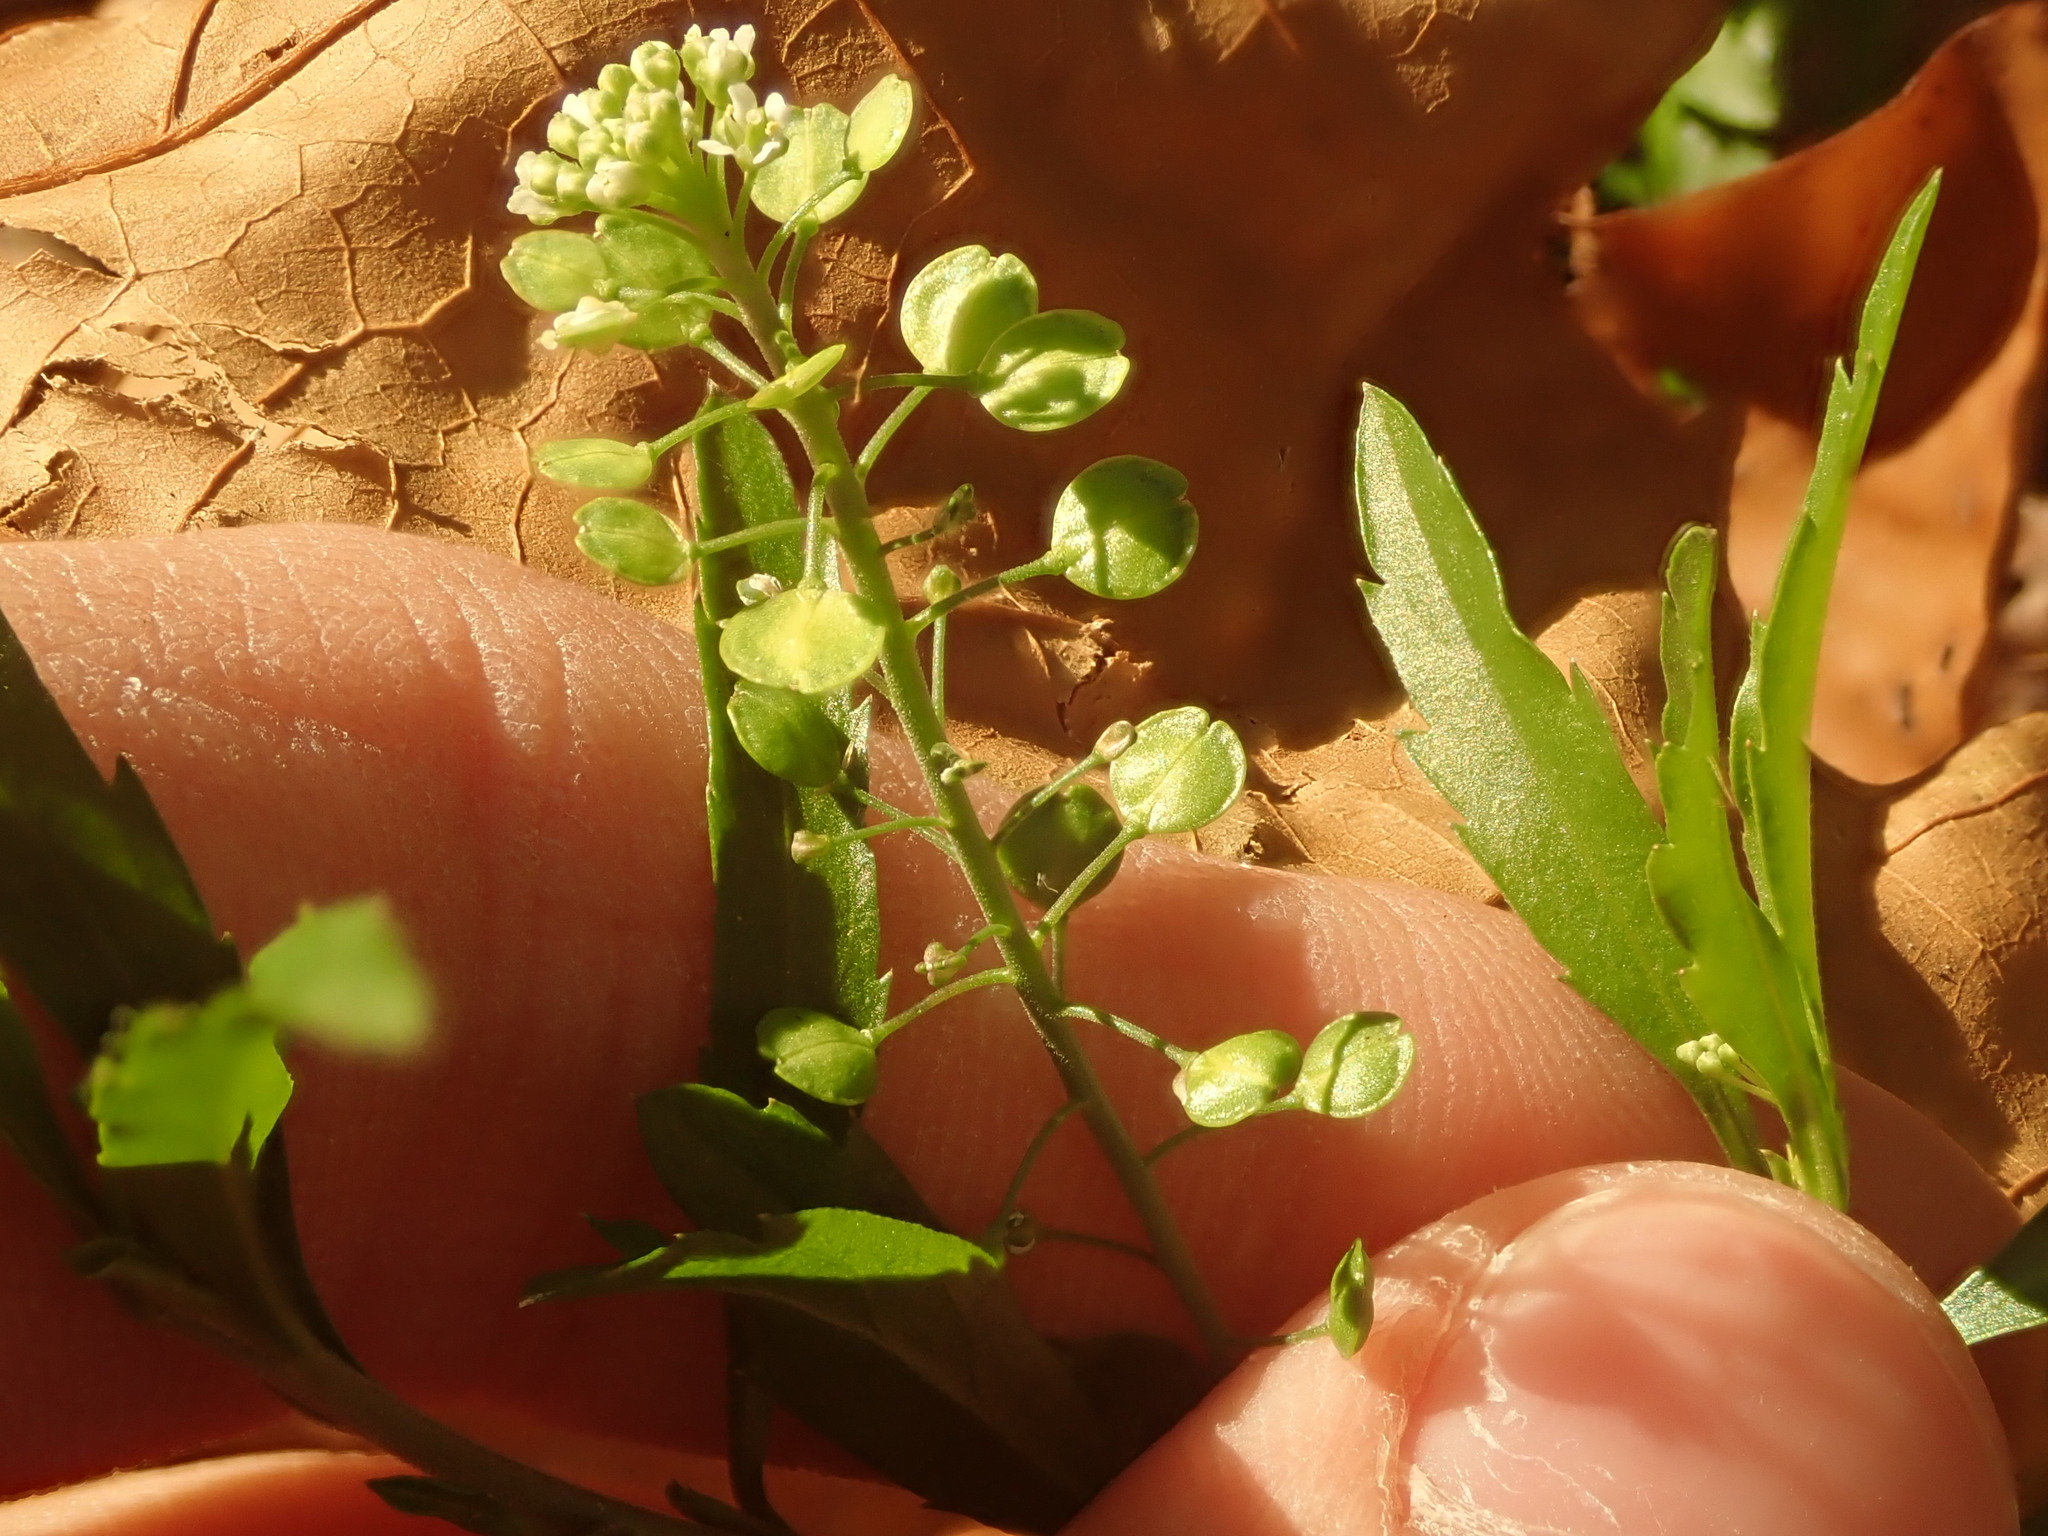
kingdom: Plantae
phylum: Tracheophyta
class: Magnoliopsida
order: Brassicales
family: Brassicaceae
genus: Lepidium
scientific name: Lepidium virginicum
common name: Least pepperwort
